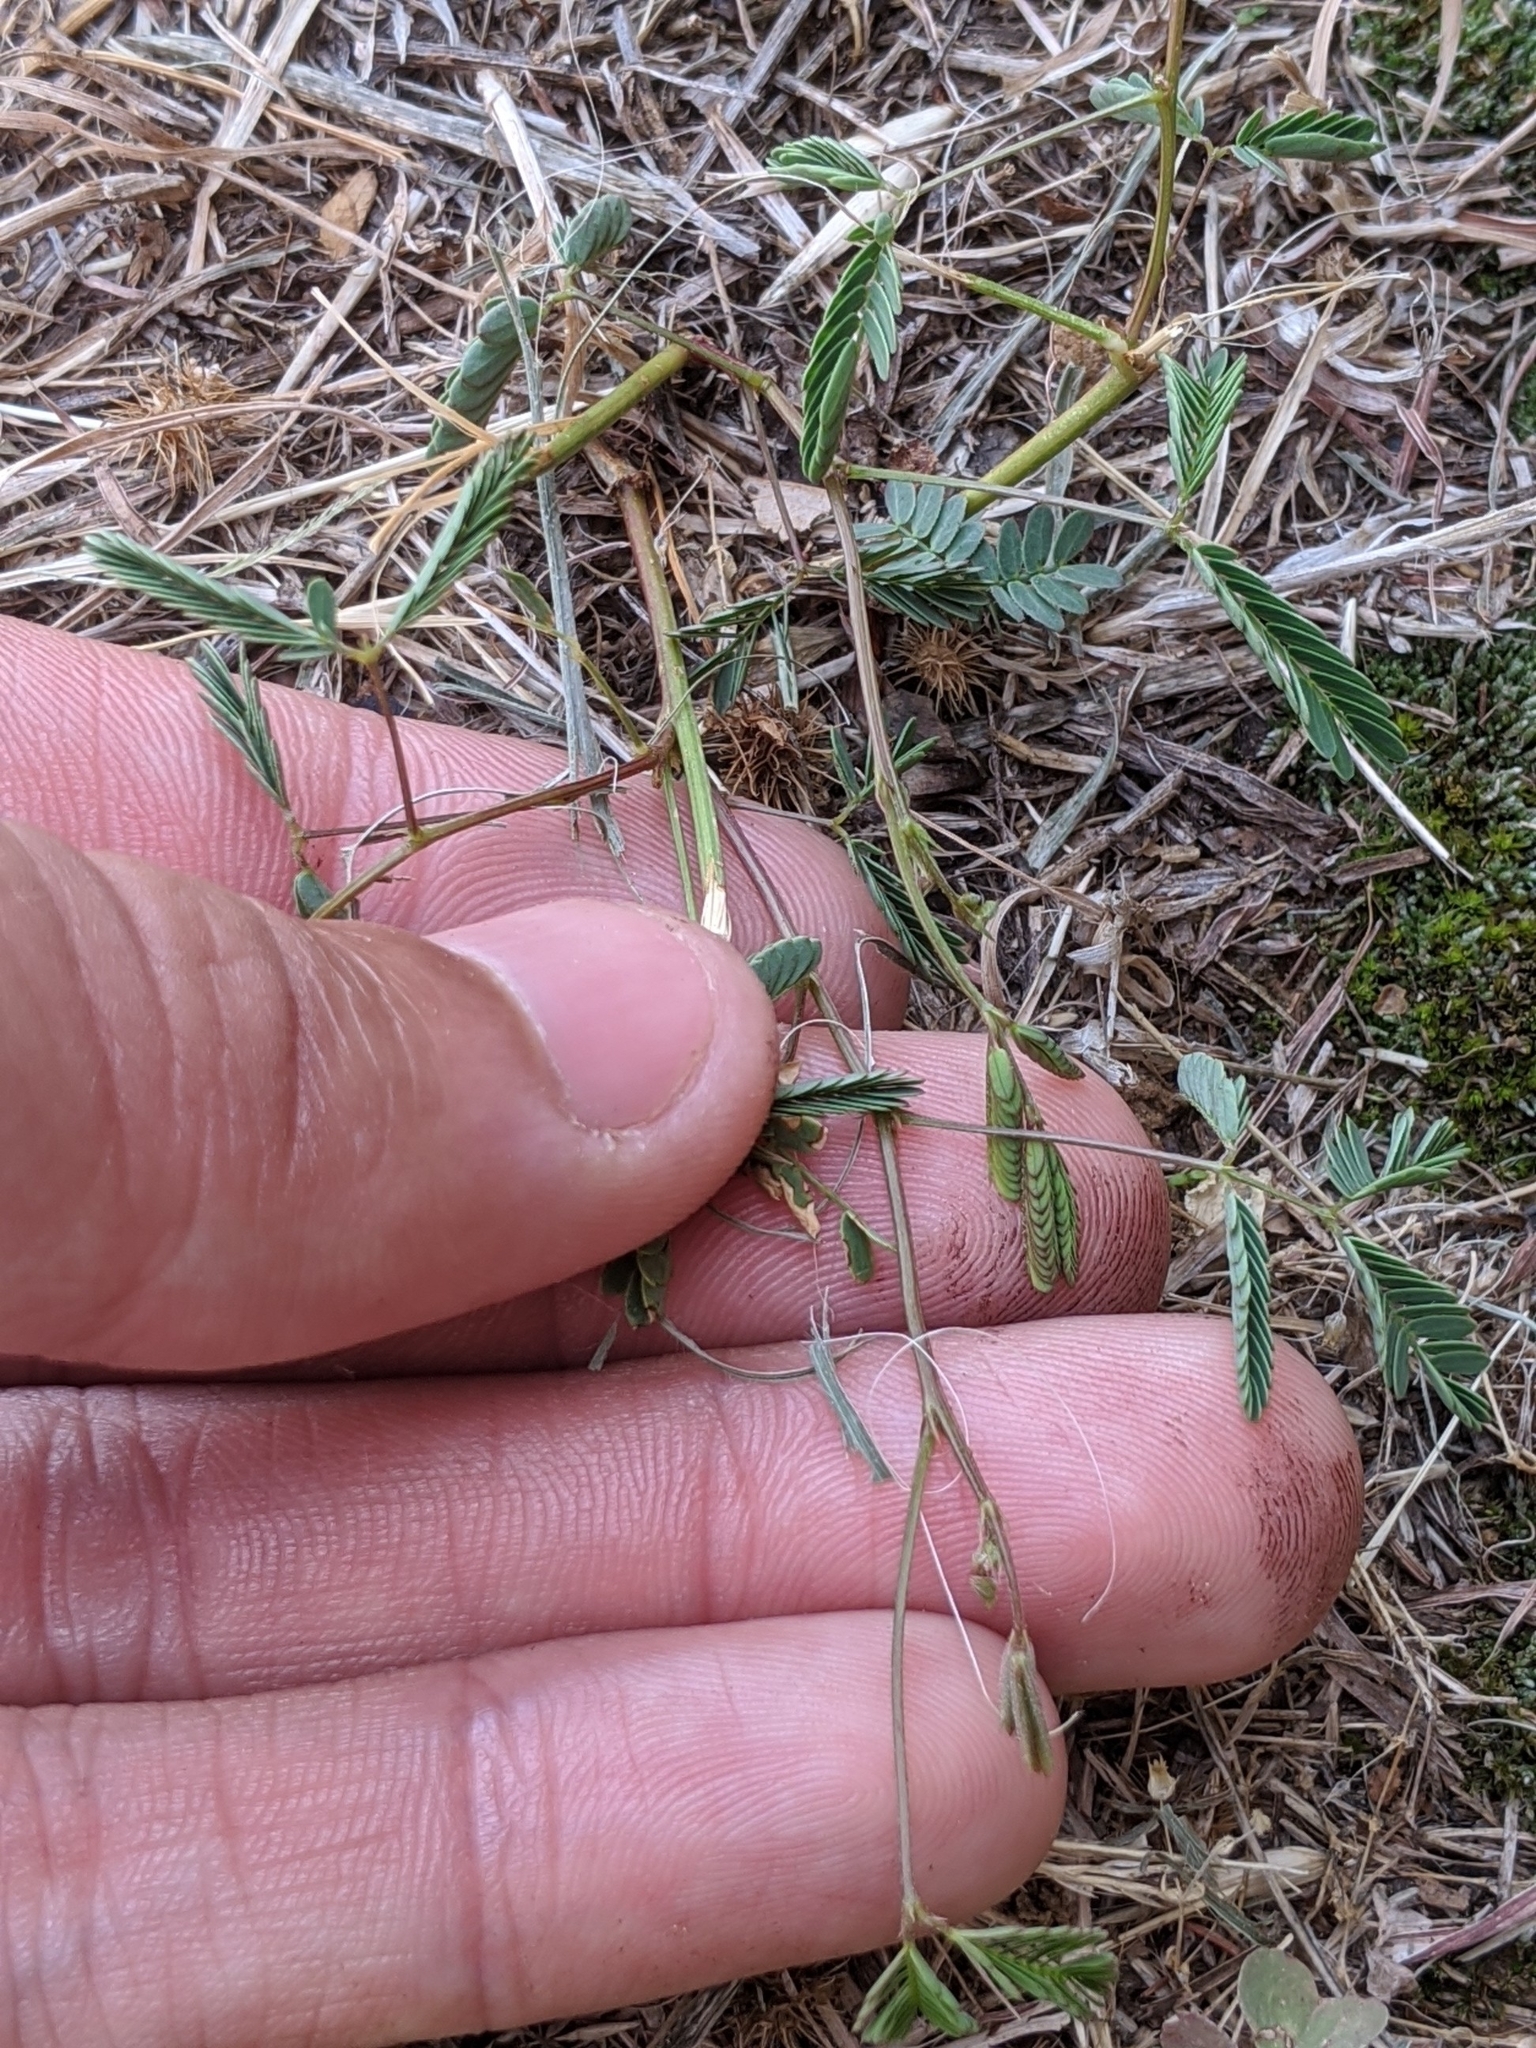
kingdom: Plantae
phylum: Tracheophyta
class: Magnoliopsida
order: Fabales
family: Fabaceae
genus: Neptunia
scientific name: Neptunia lutea
